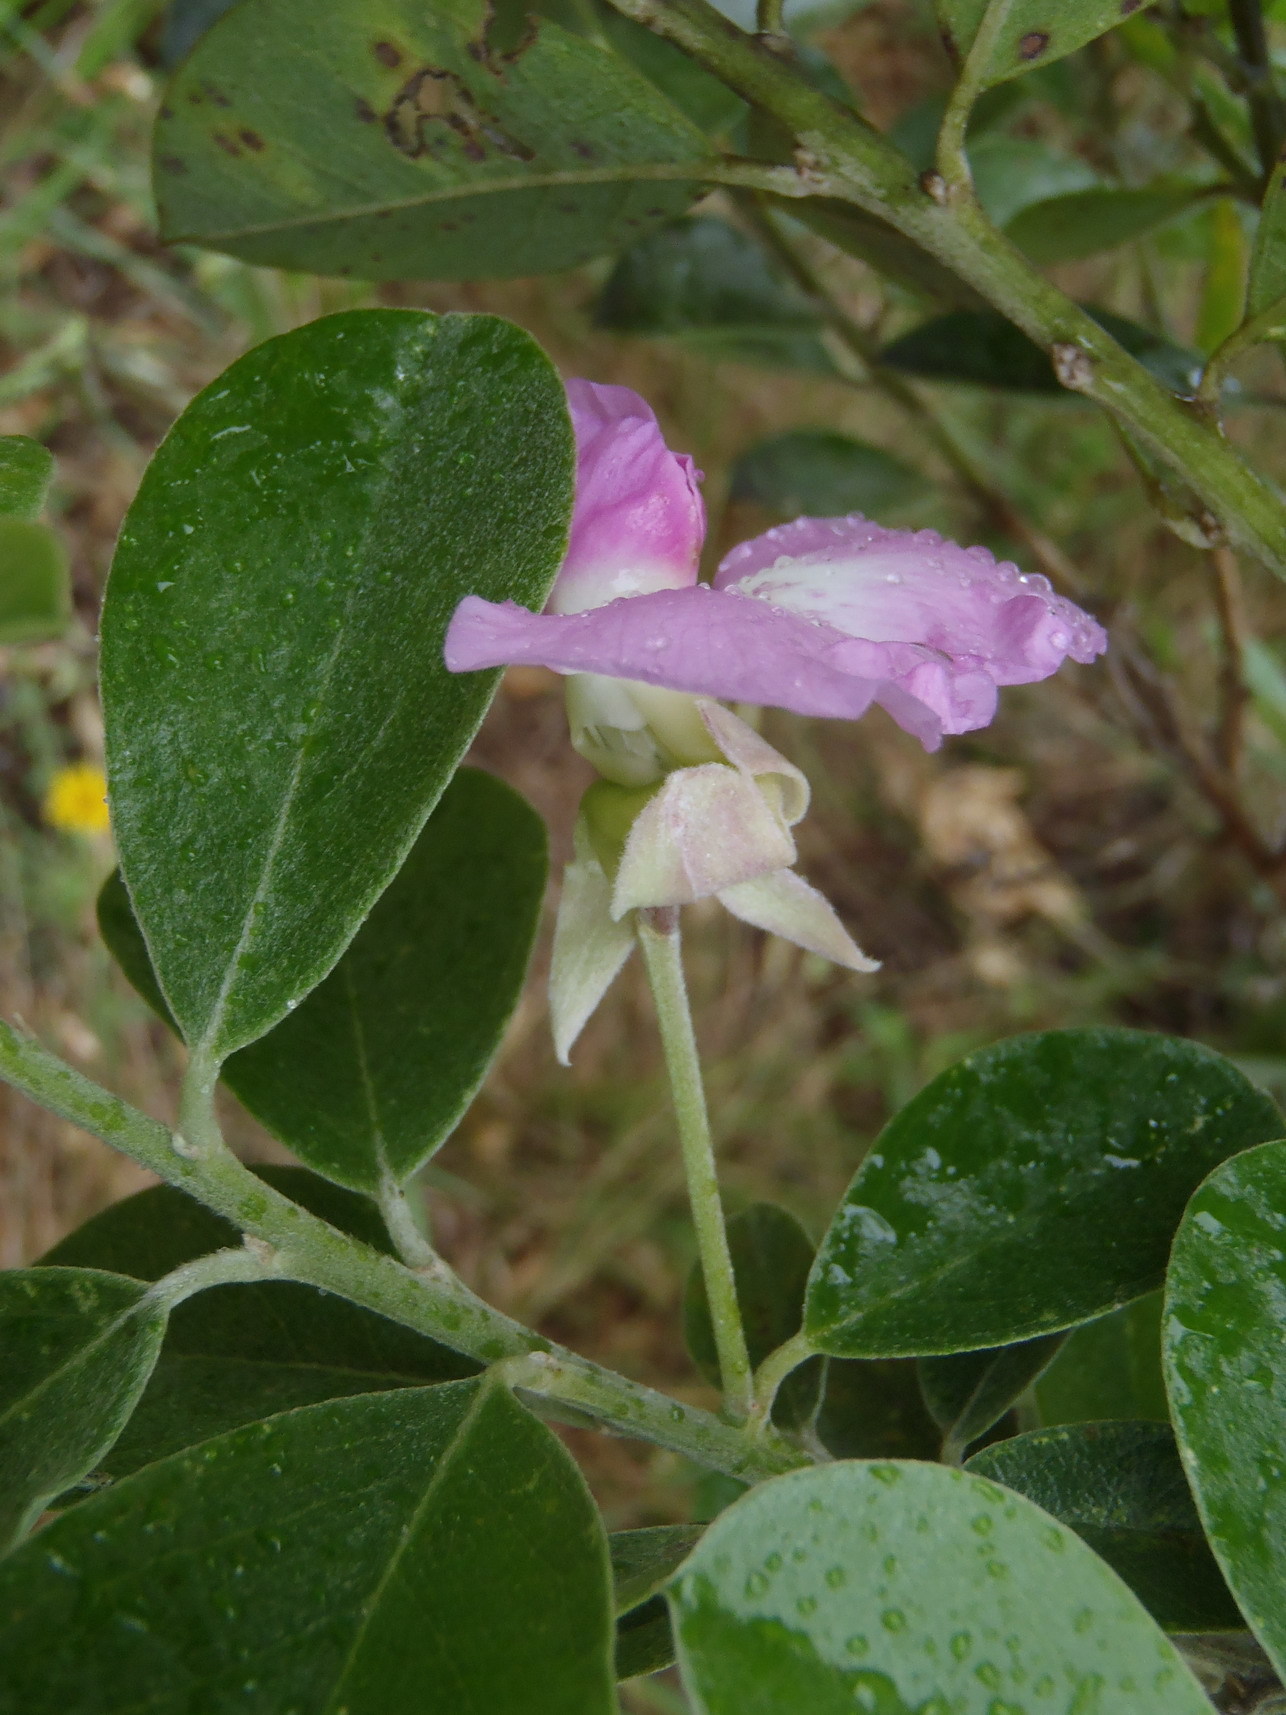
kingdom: Plantae
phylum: Tracheophyta
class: Magnoliopsida
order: Fabales
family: Fabaceae
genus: Podalyria
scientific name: Podalyria calyptrata
